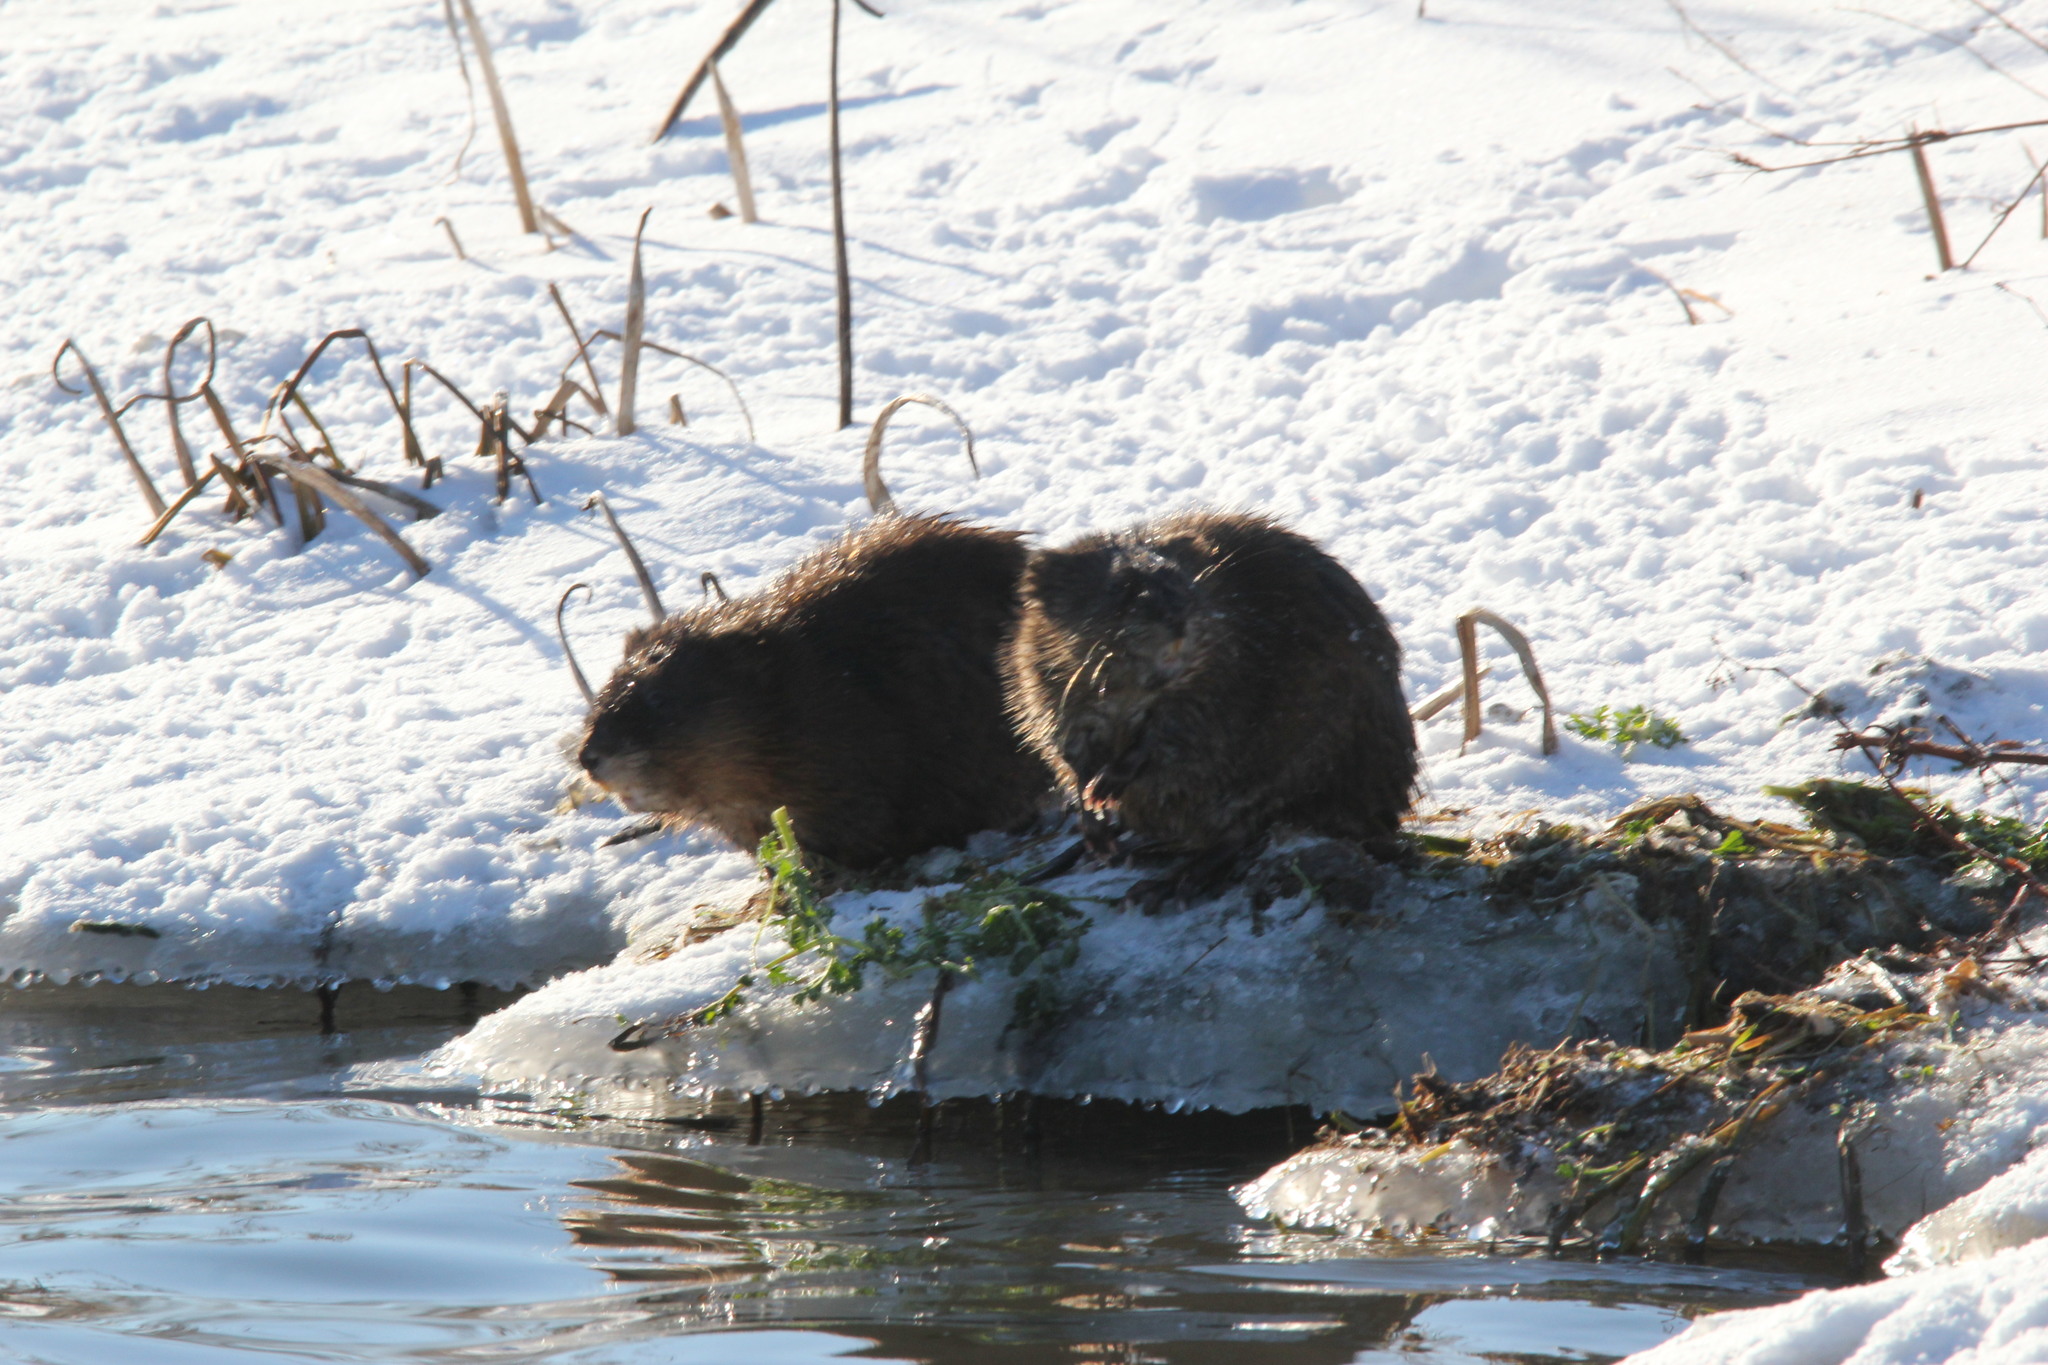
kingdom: Animalia
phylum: Chordata
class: Mammalia
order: Rodentia
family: Cricetidae
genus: Ondatra
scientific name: Ondatra zibethicus
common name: Muskrat
